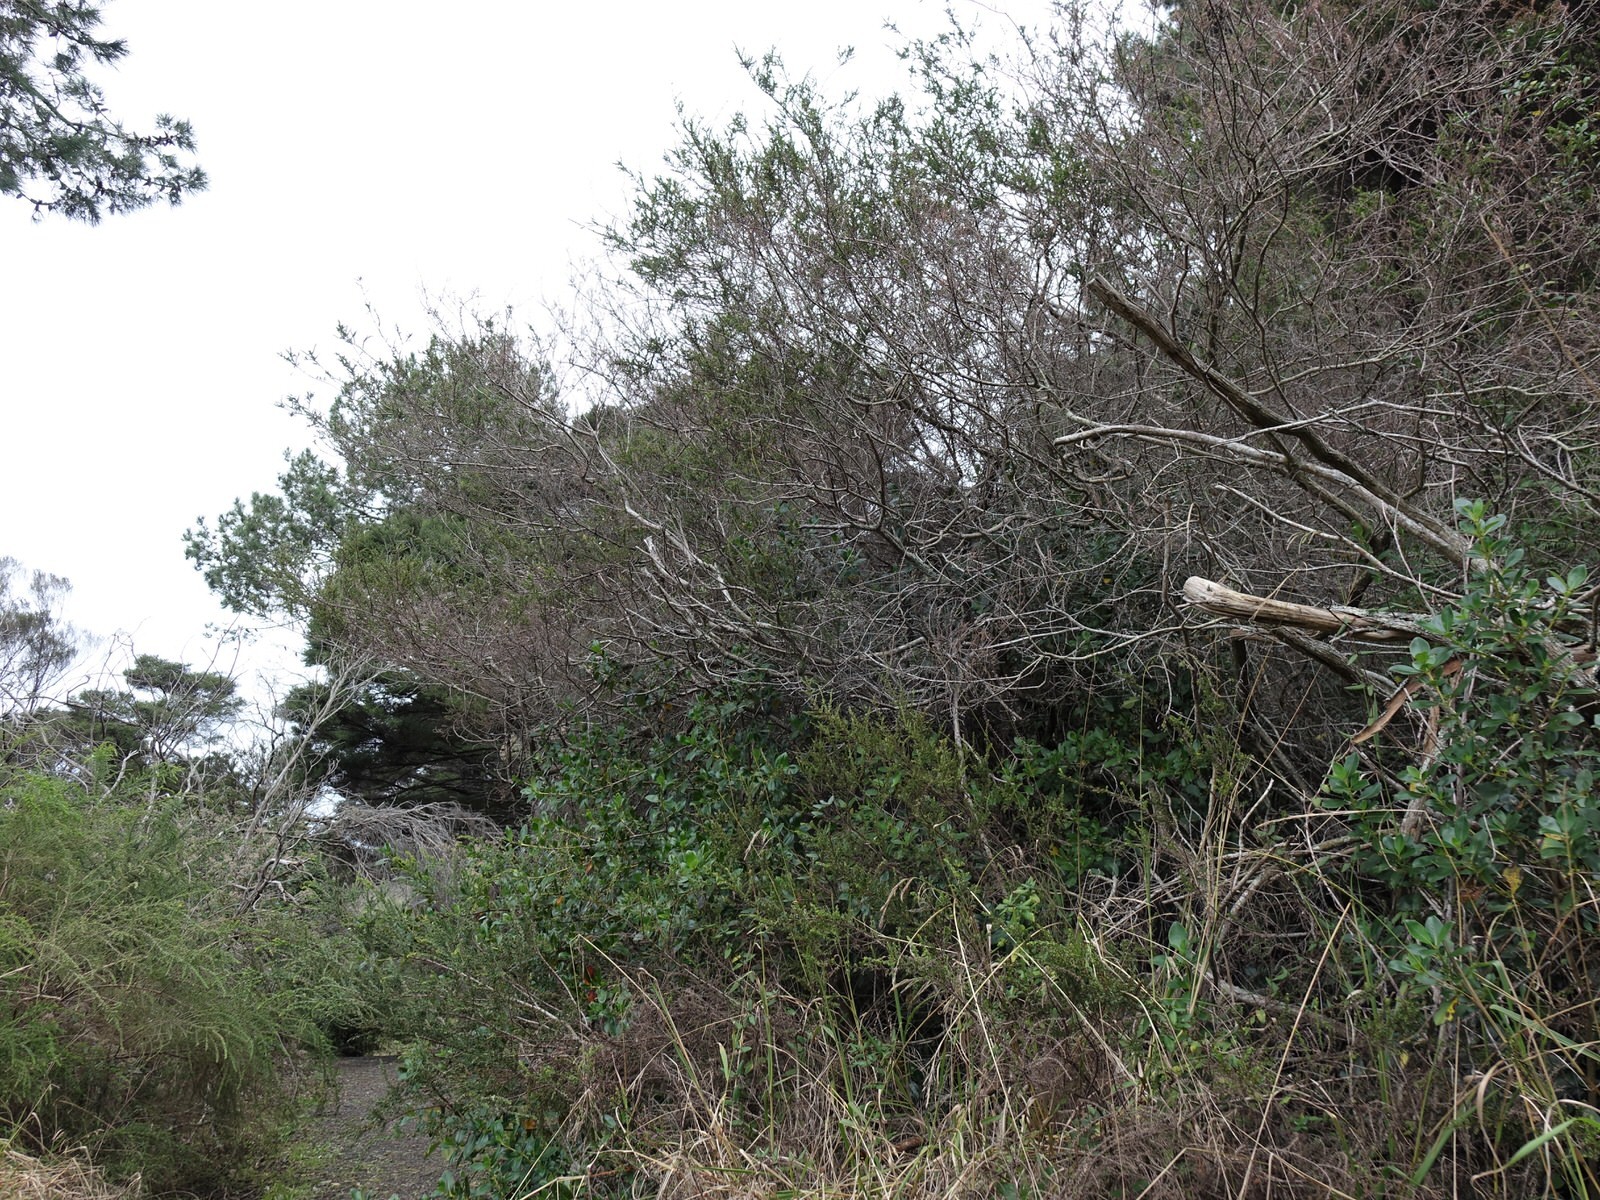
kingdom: Plantae
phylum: Tracheophyta
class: Magnoliopsida
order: Fabales
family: Fabaceae
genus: Acacia
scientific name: Acacia paradoxa
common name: Paradox acacia
